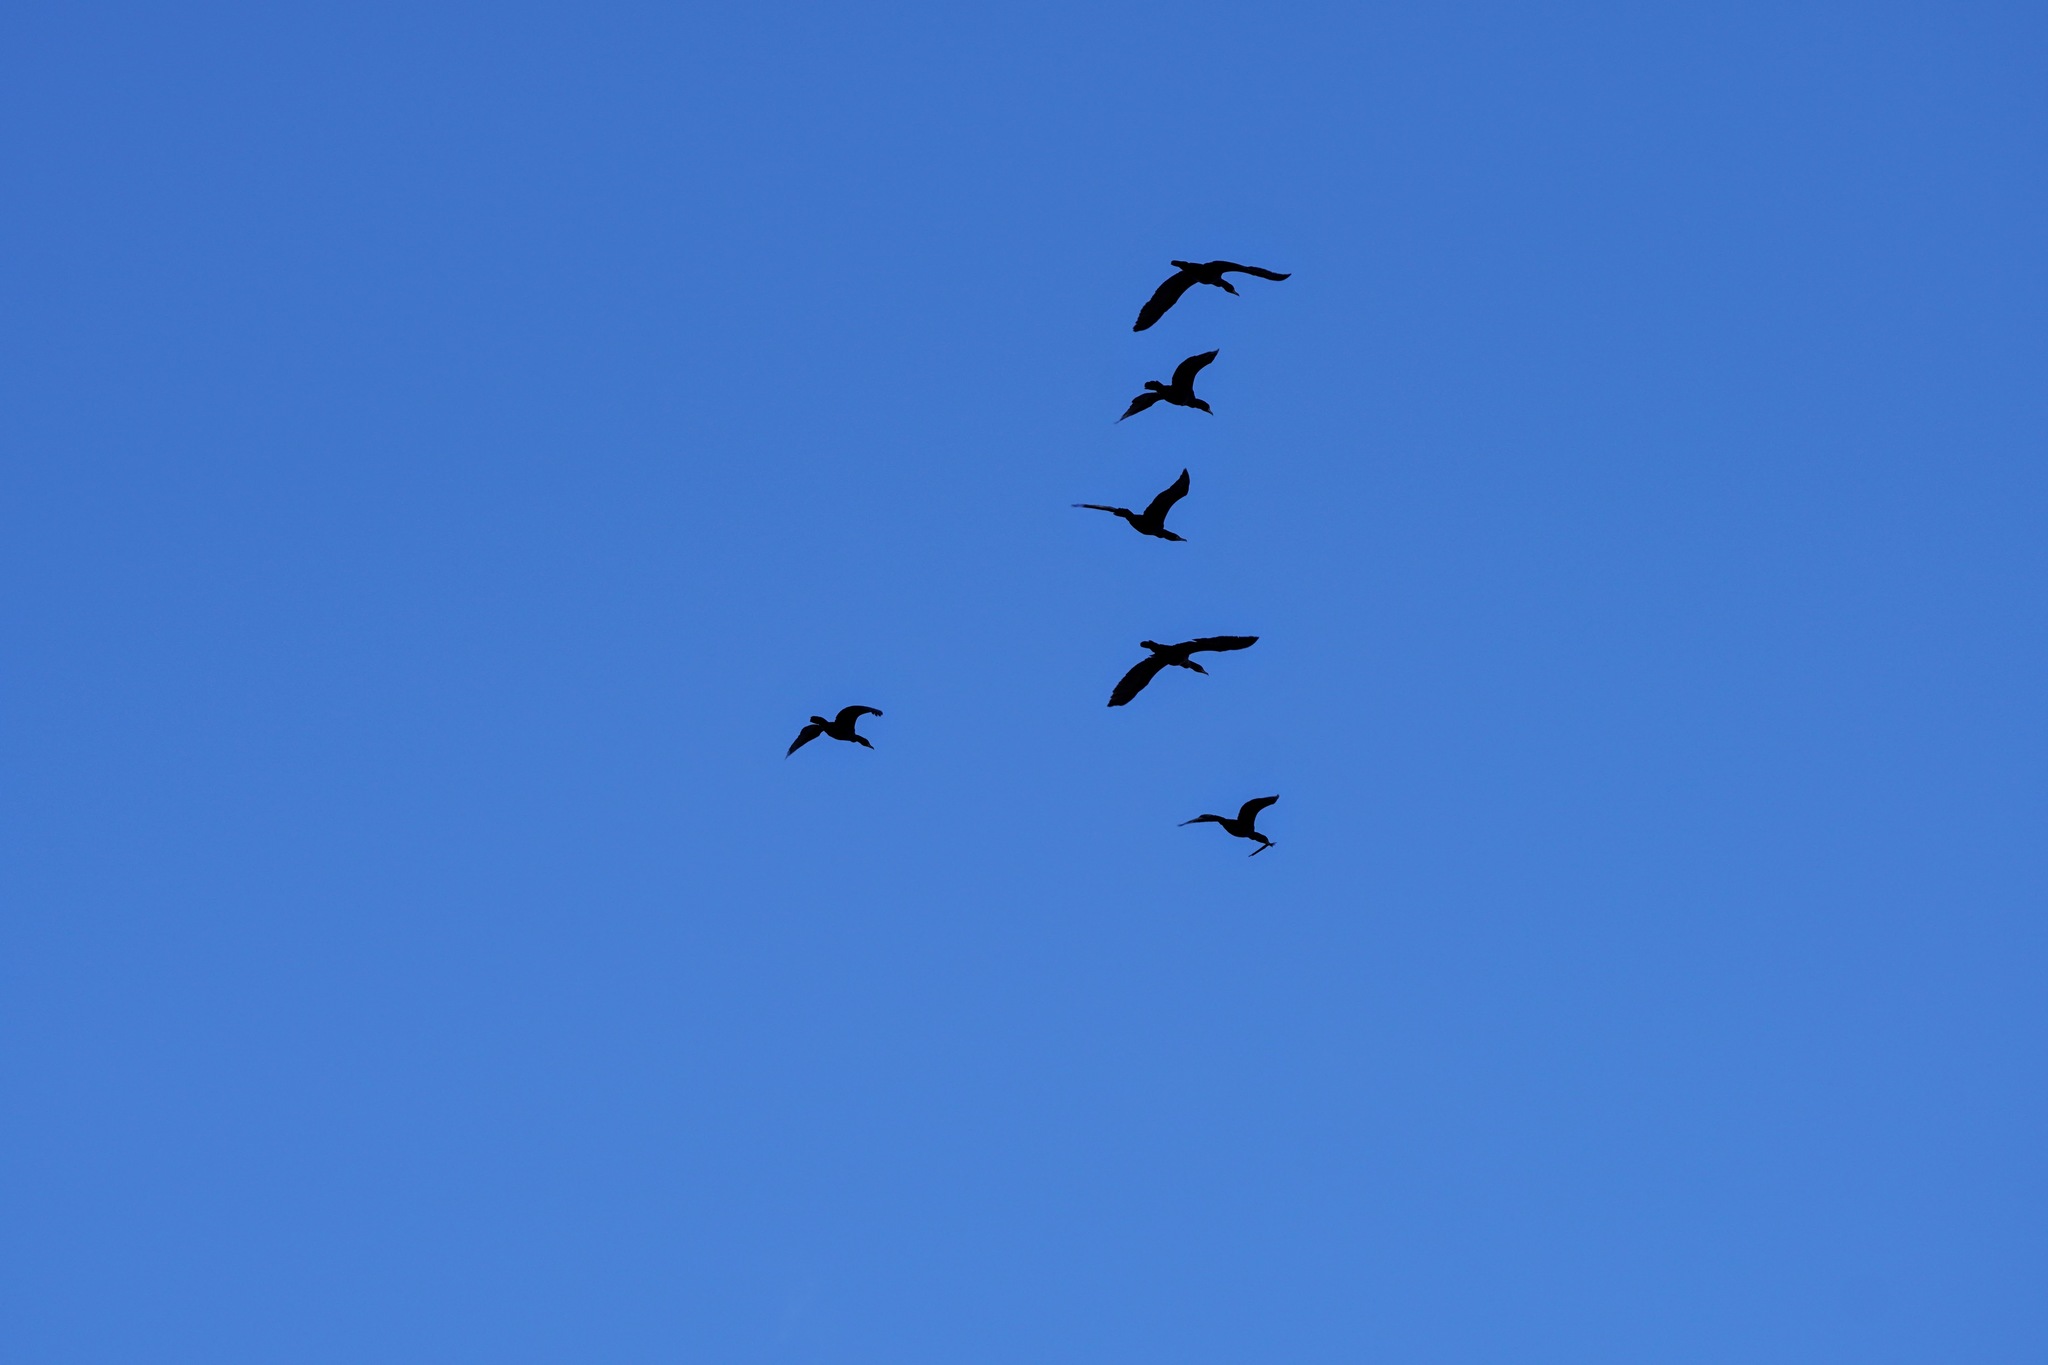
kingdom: Animalia
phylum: Chordata
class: Aves
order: Suliformes
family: Phalacrocoracidae
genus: Phalacrocorax
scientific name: Phalacrocorax auritus
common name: Double-crested cormorant
